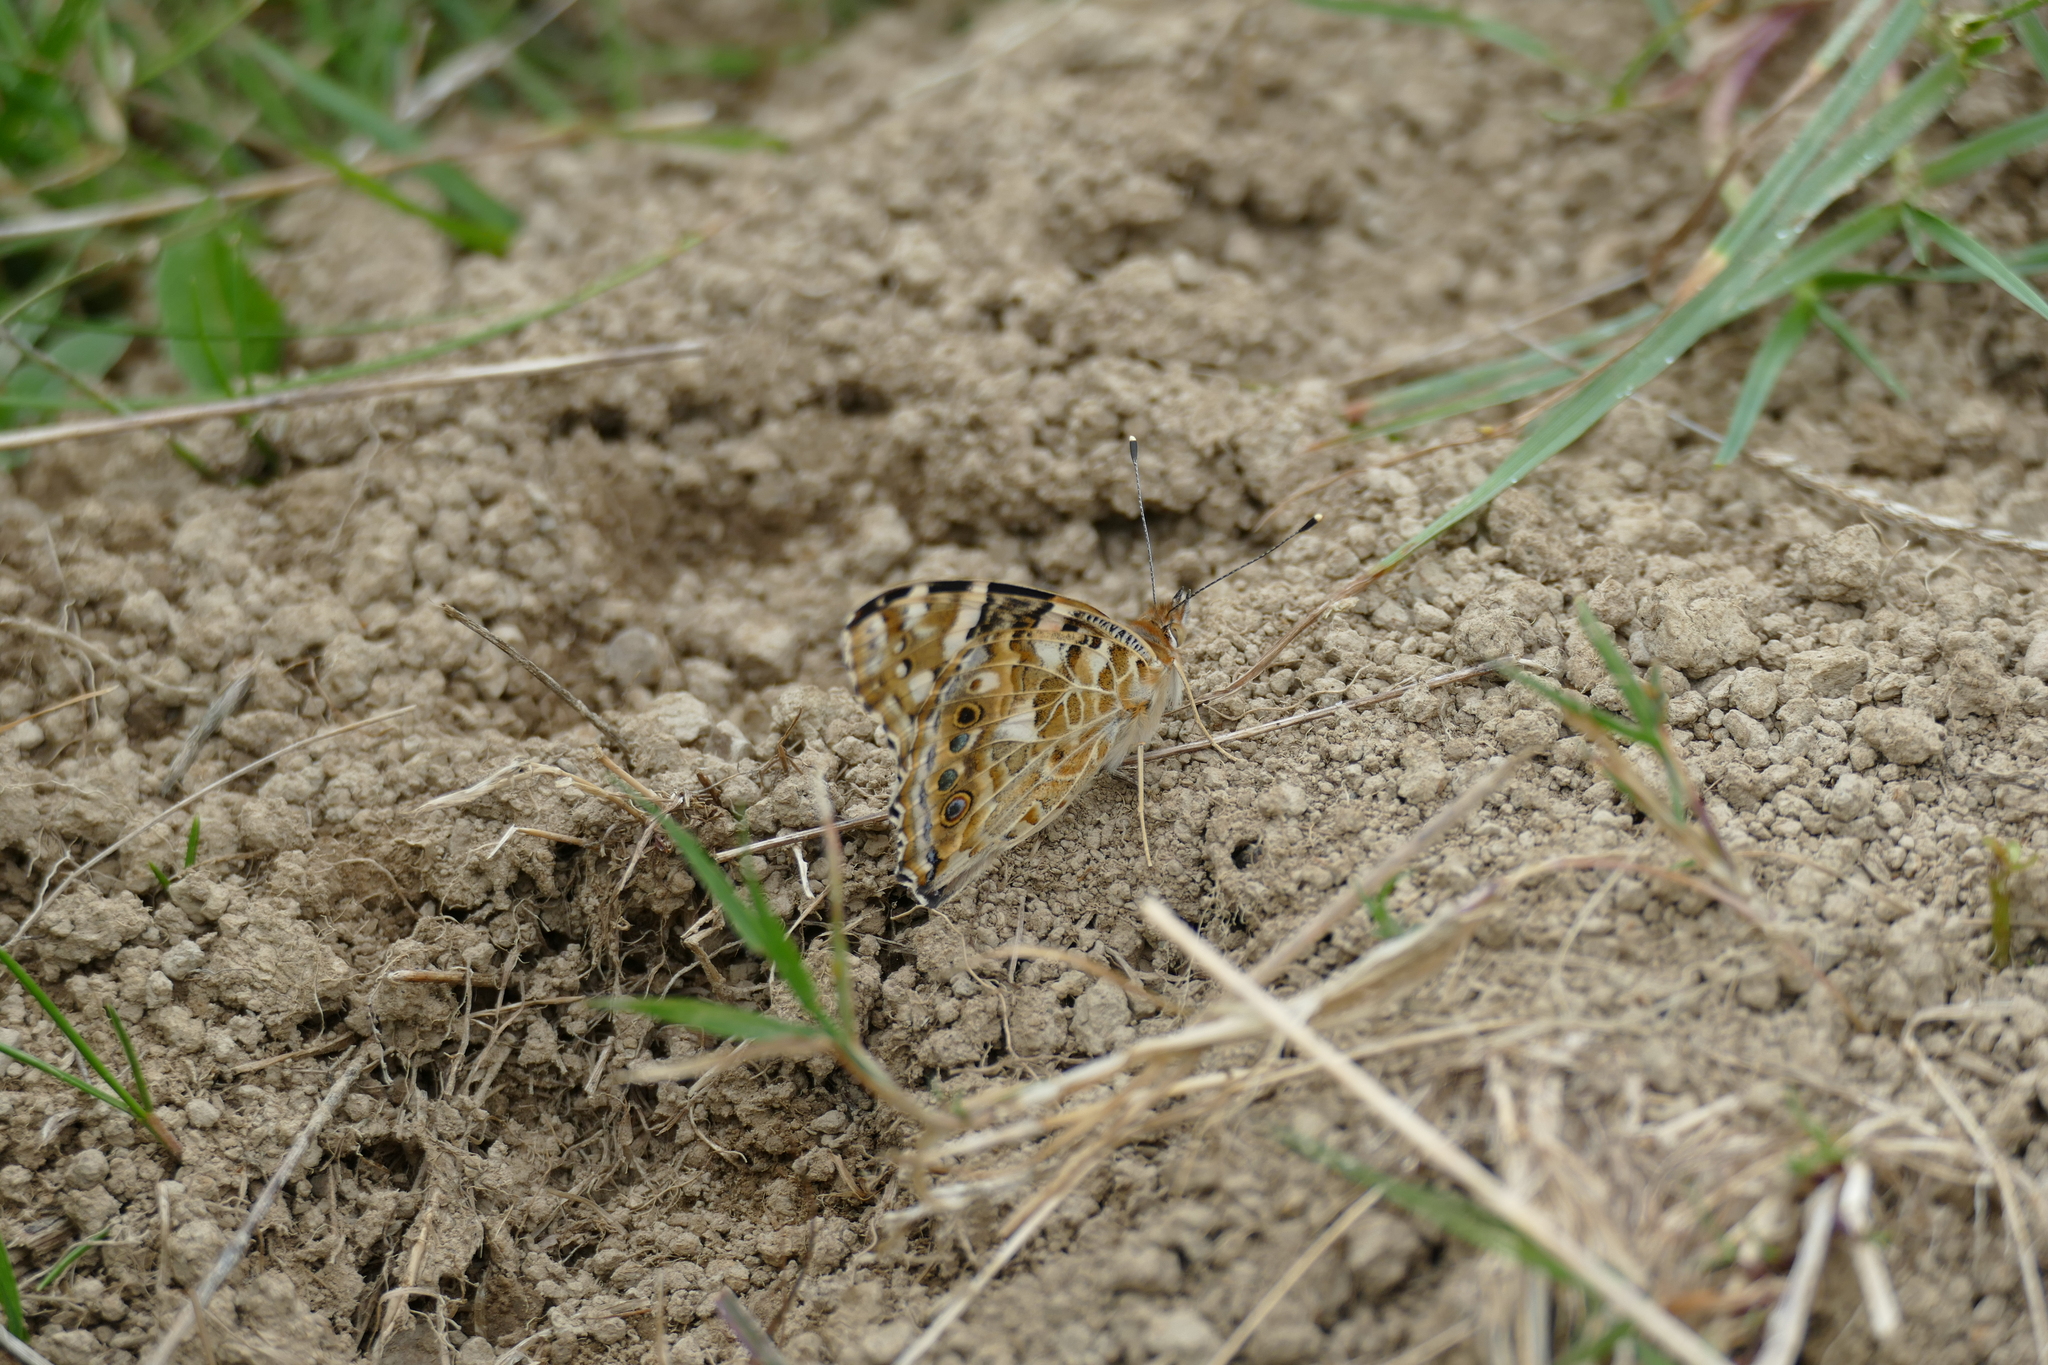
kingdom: Animalia
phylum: Arthropoda
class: Insecta
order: Lepidoptera
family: Nymphalidae
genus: Vanessa
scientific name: Vanessa cardui
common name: Painted lady
